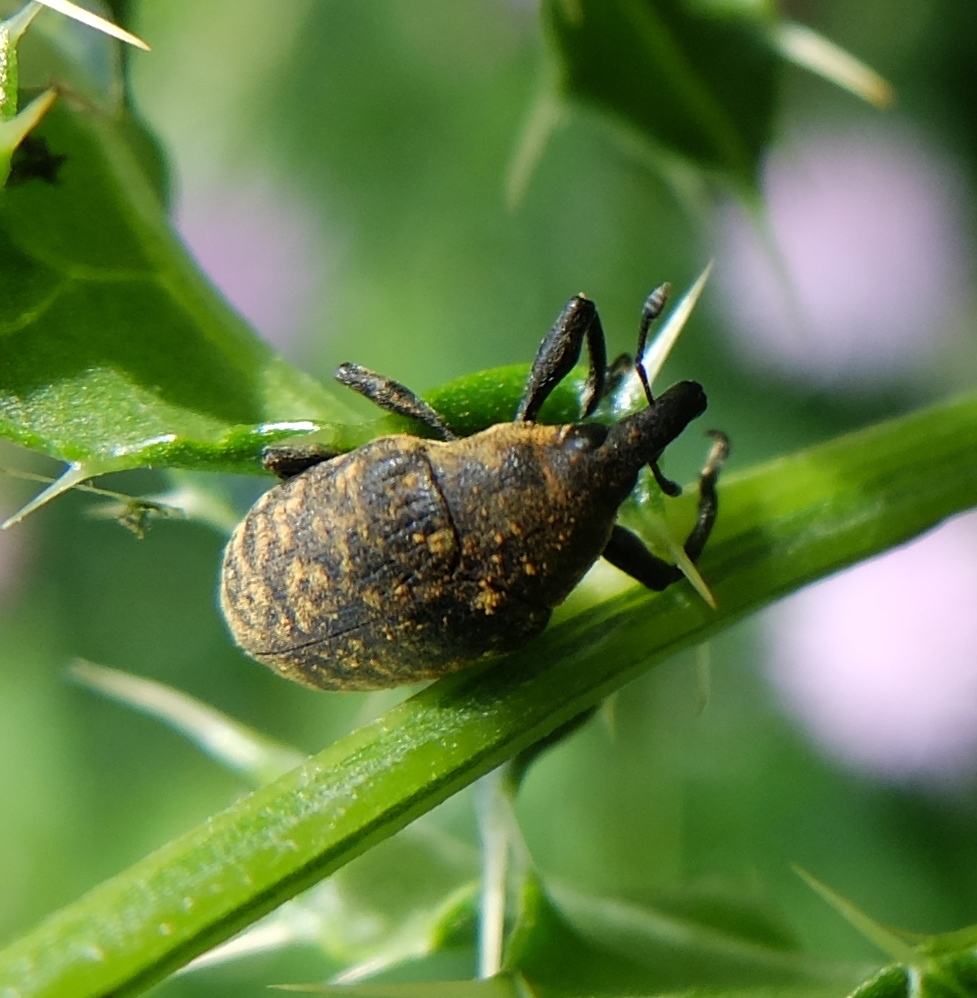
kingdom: Animalia
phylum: Arthropoda
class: Insecta
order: Coleoptera
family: Curculionidae
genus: Larinus
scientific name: Larinus turbinatus
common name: Weevil
